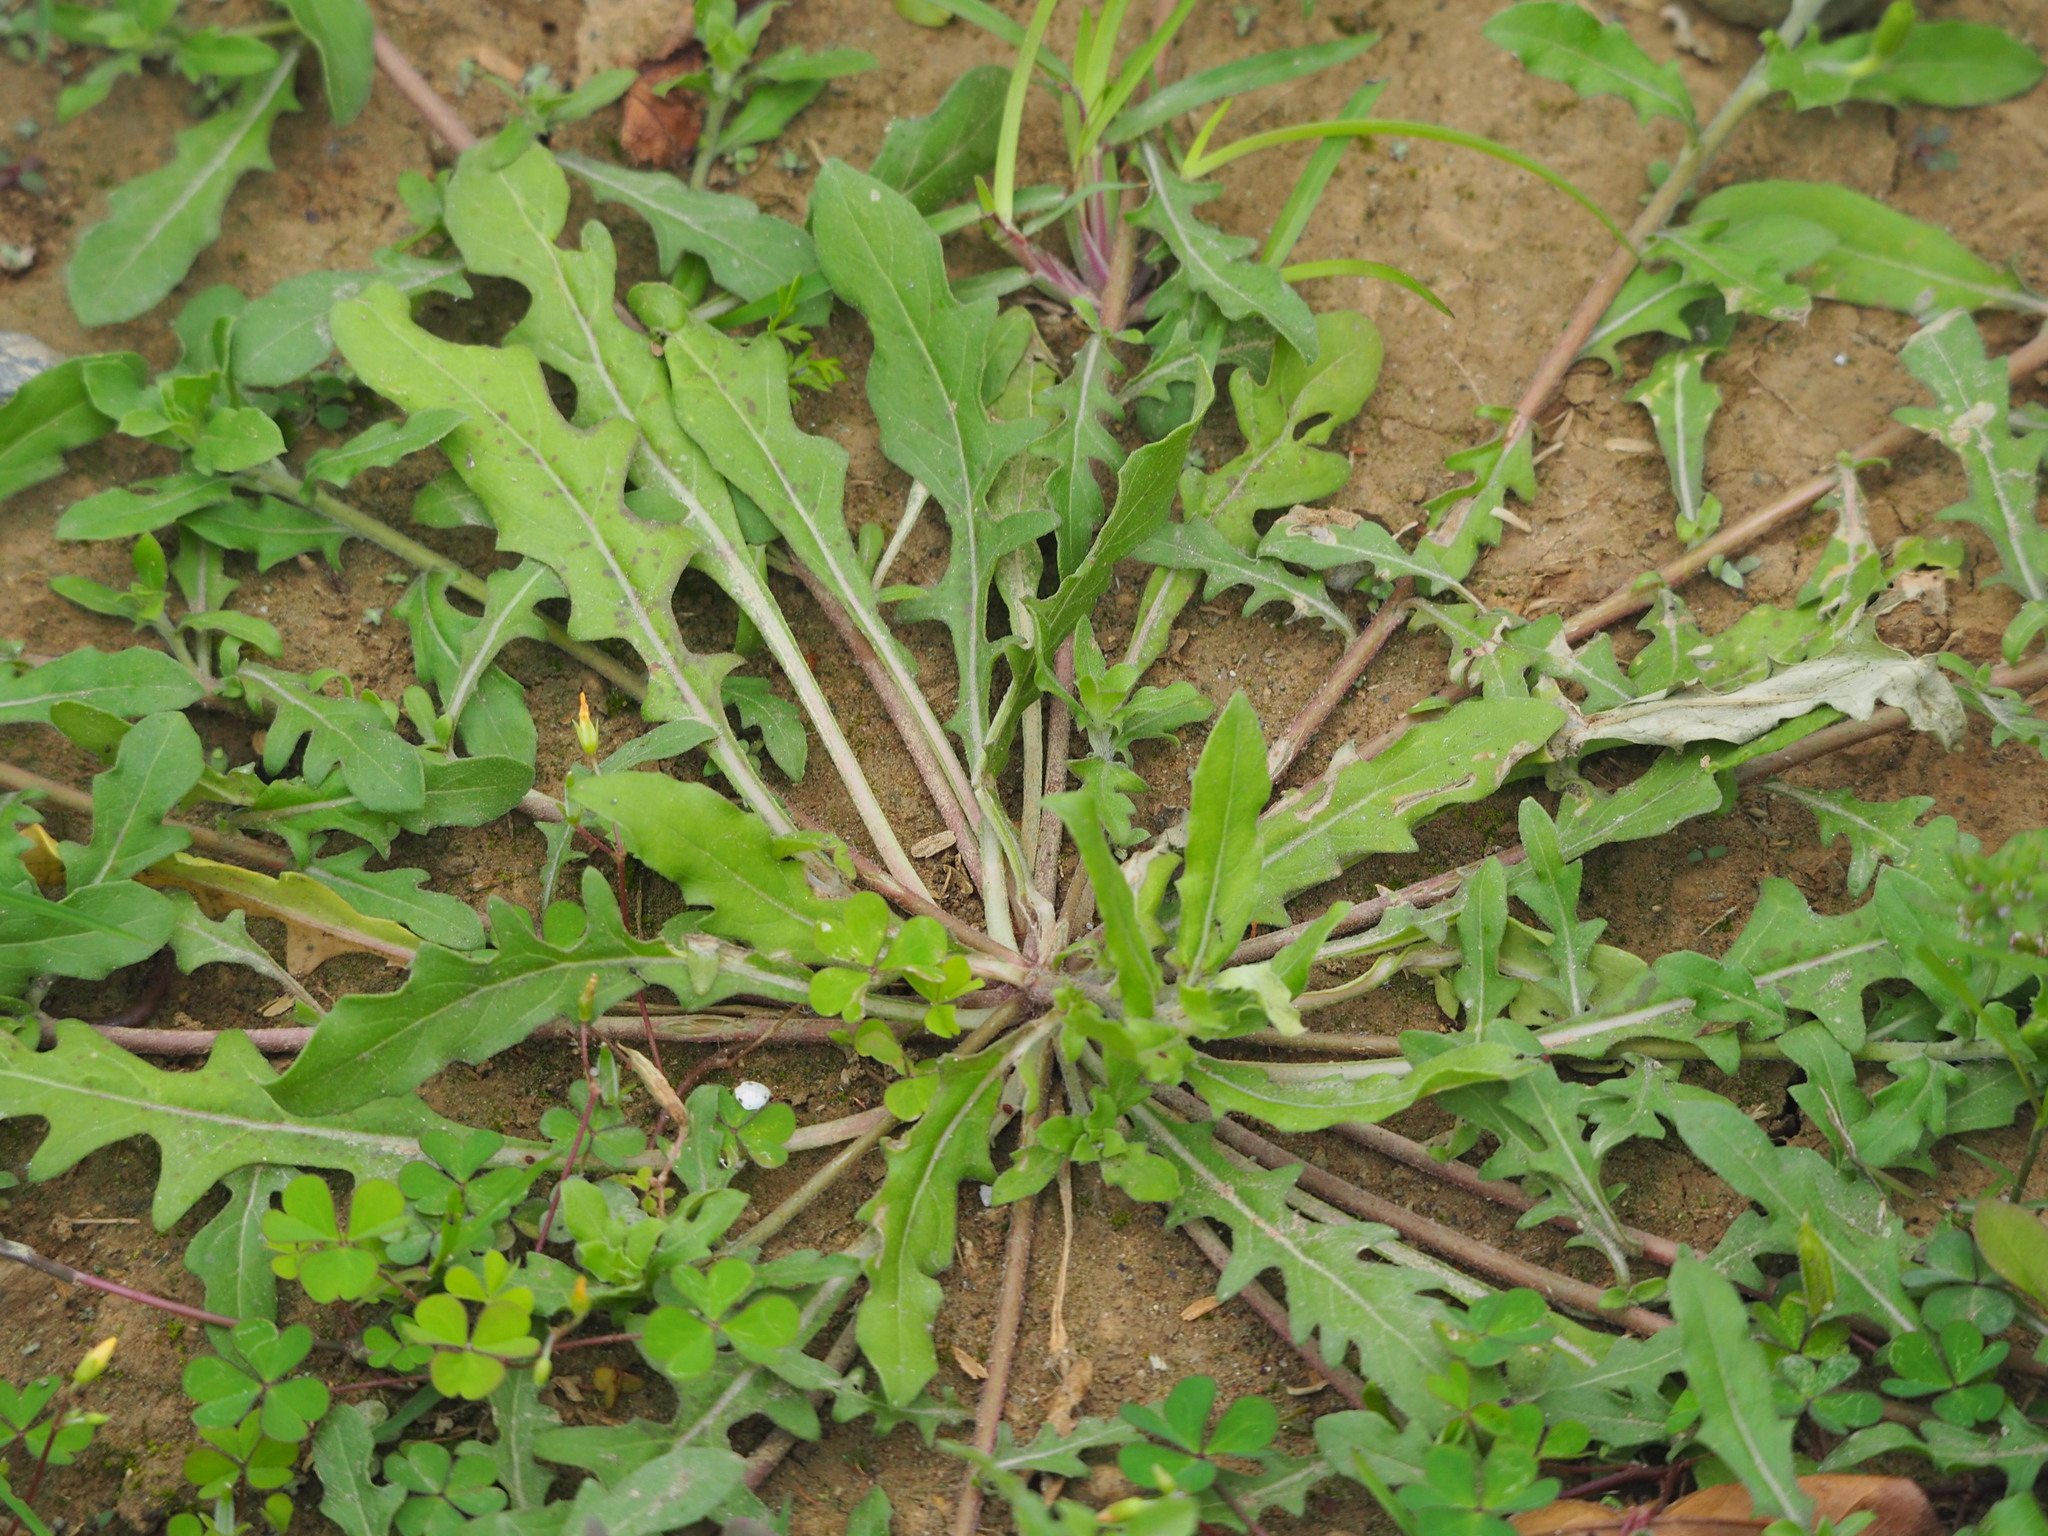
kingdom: Plantae
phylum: Tracheophyta
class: Magnoliopsida
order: Myrtales
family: Onagraceae
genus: Oenothera
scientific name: Oenothera laciniata
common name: Cut-leaved evening-primrose
